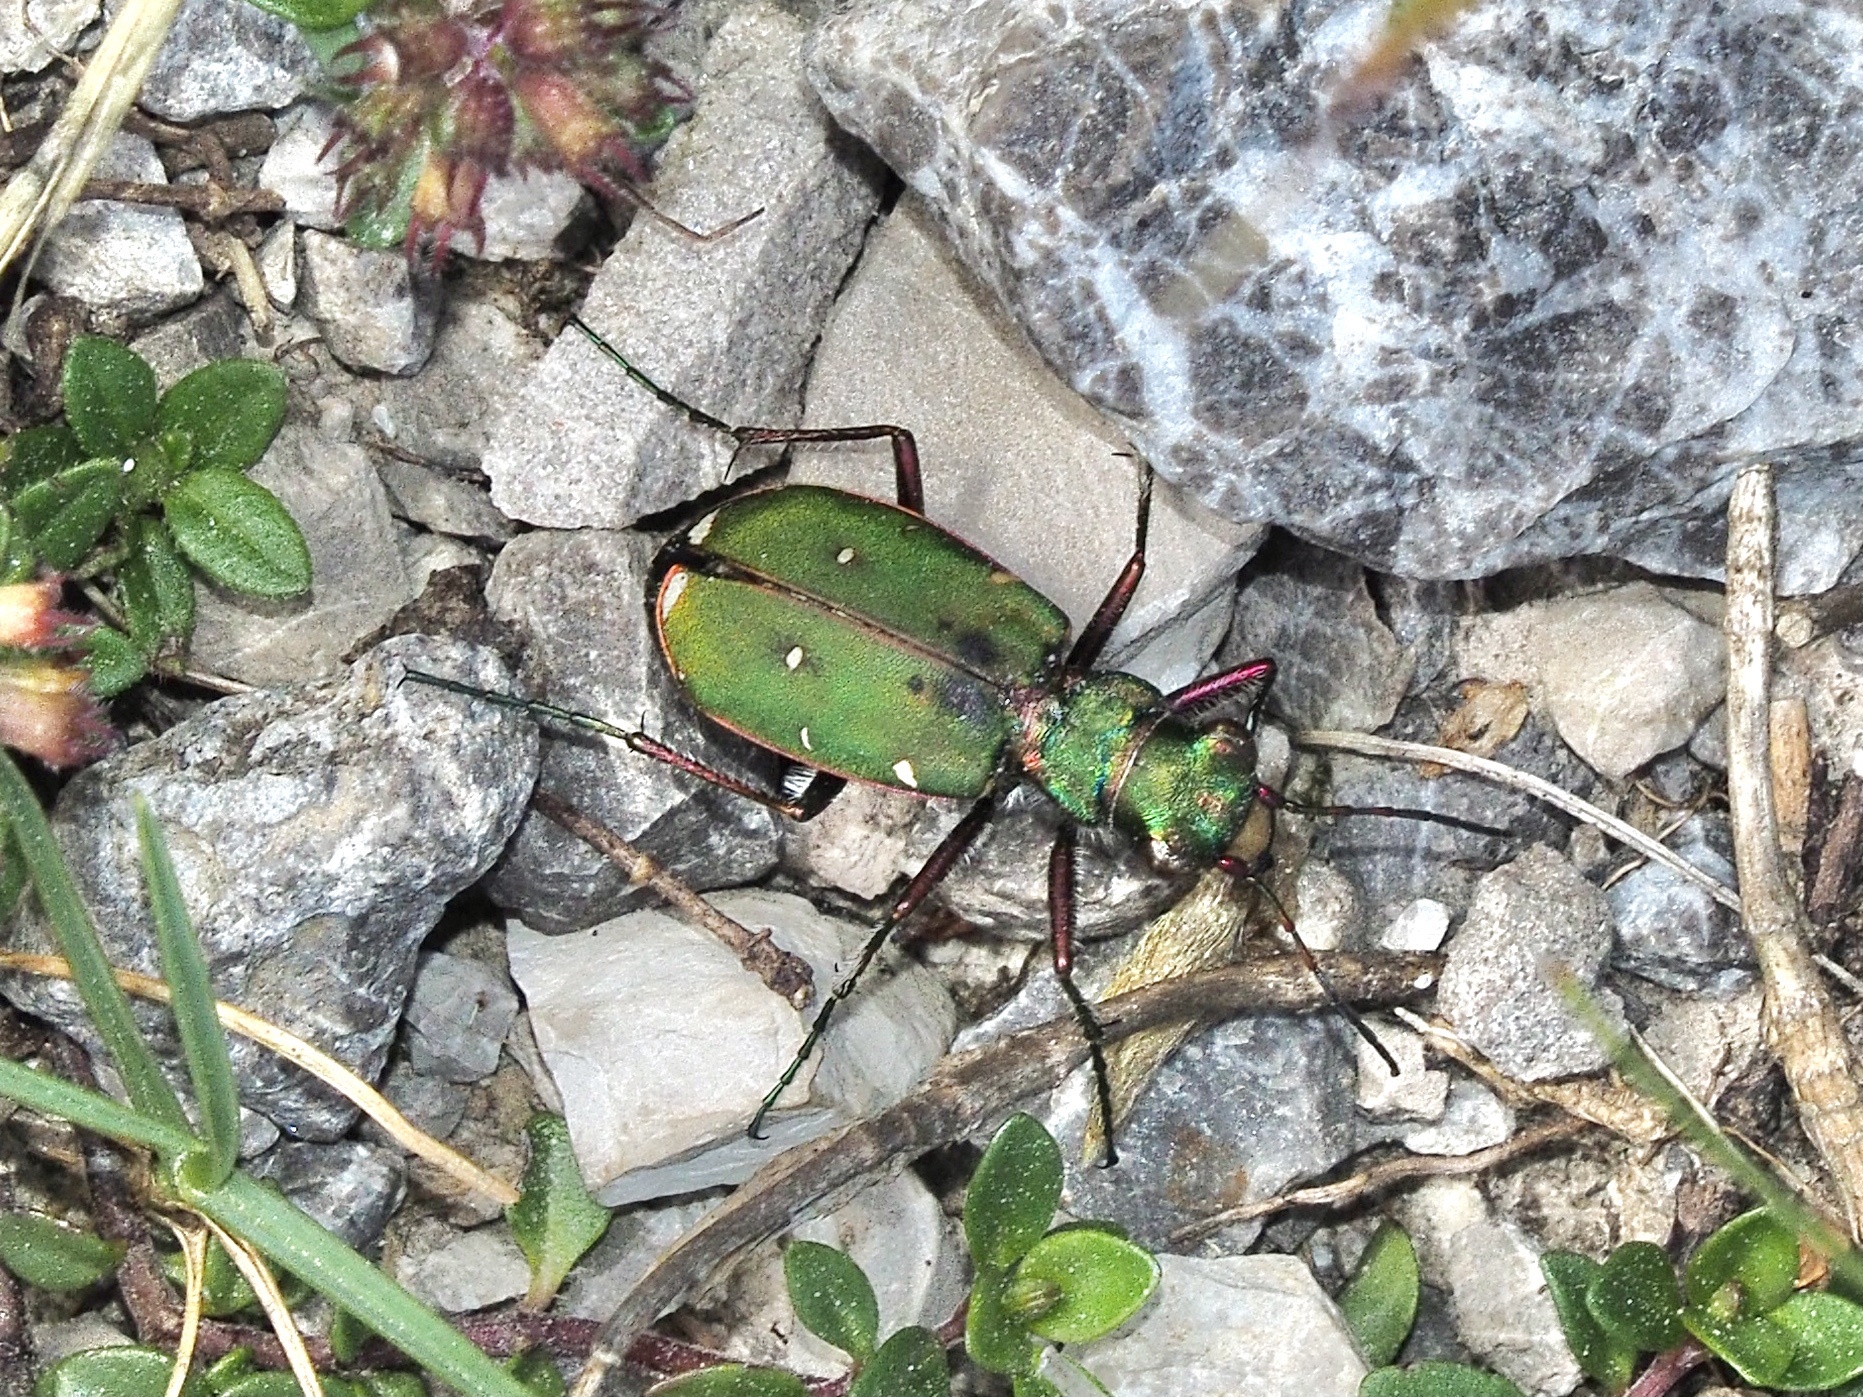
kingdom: Animalia
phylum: Arthropoda
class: Insecta
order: Coleoptera
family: Carabidae
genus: Cicindela
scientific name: Cicindela campestris
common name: Common tiger beetle
